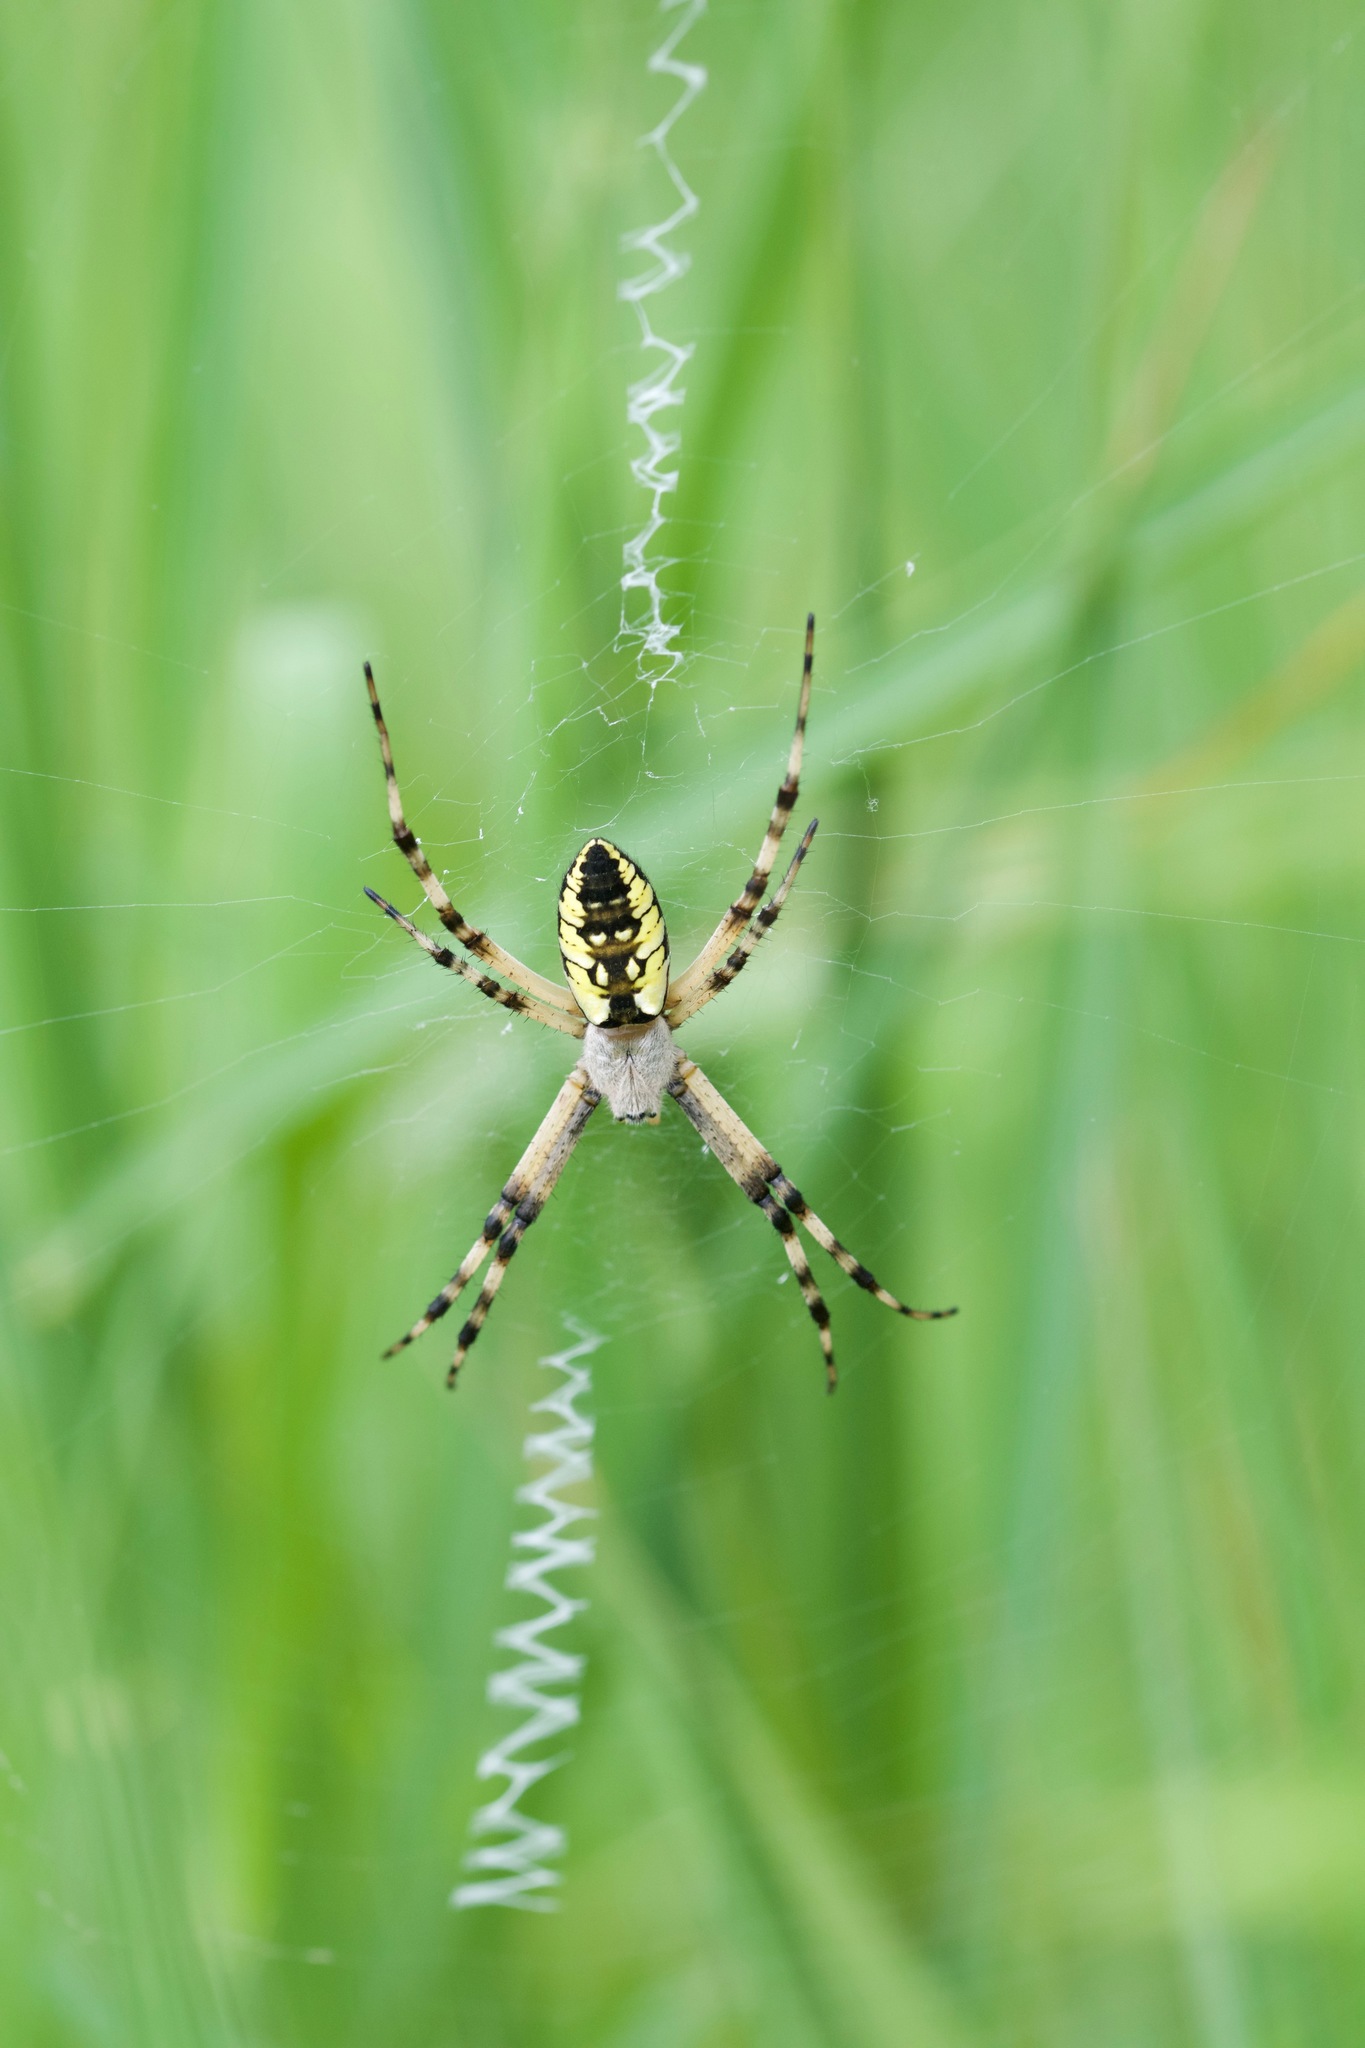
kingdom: Animalia
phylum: Arthropoda
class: Arachnida
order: Araneae
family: Araneidae
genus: Argiope
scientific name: Argiope aurantia
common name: Orb weavers
